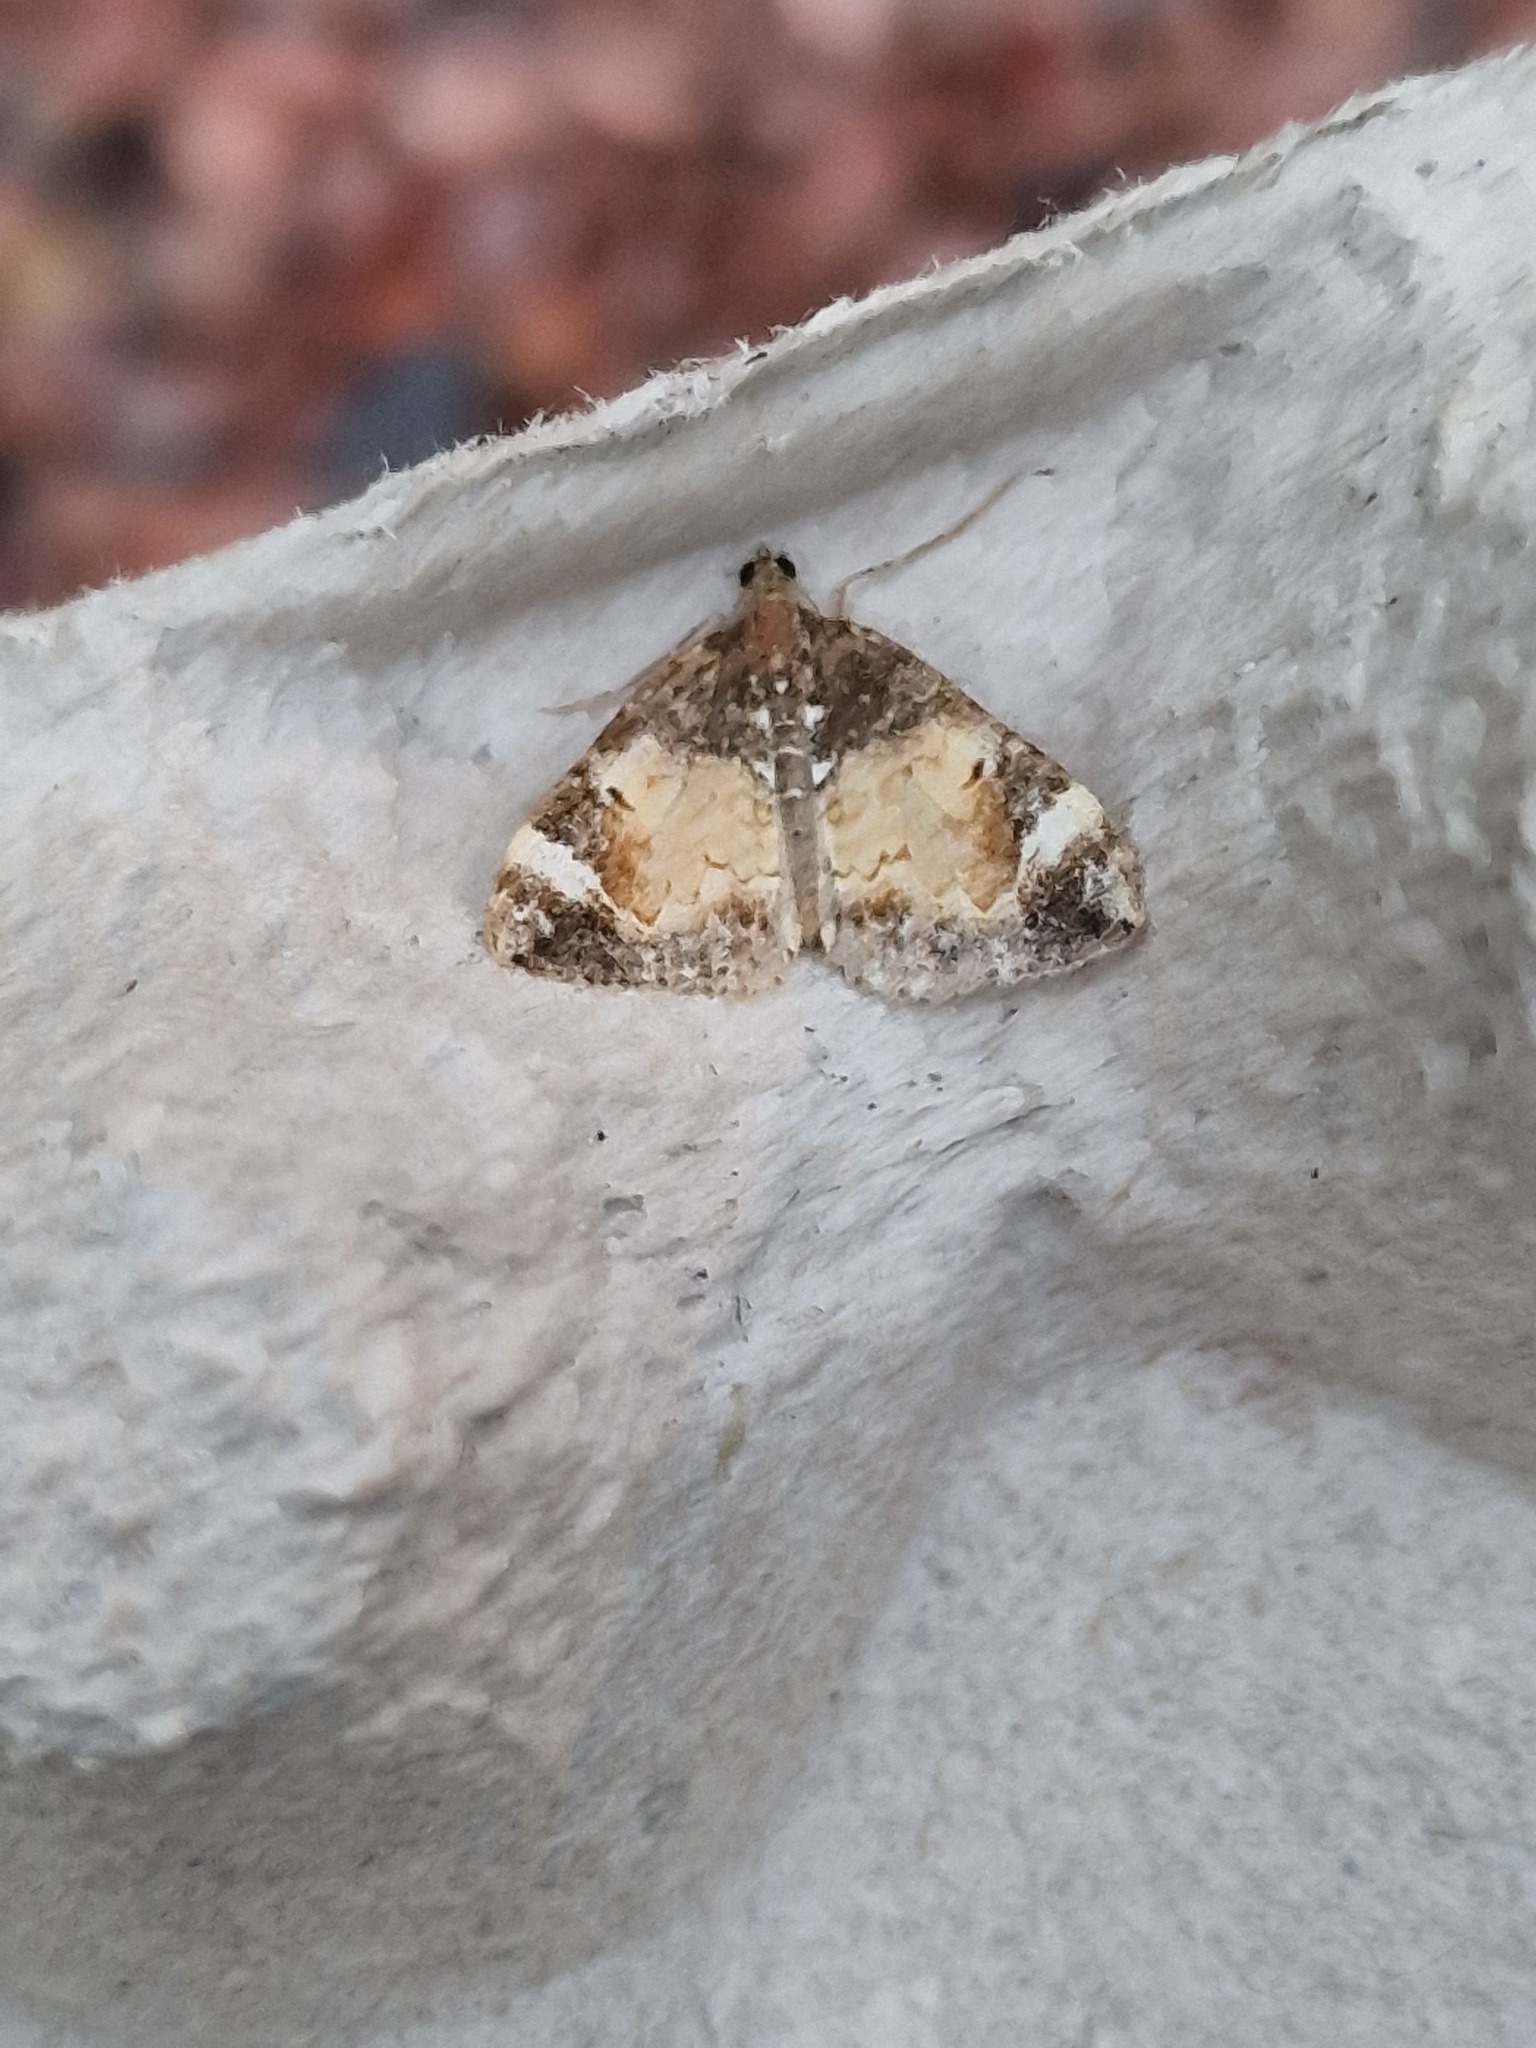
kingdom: Animalia
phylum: Arthropoda
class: Insecta
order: Lepidoptera
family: Geometridae
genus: Dysstroma
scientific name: Dysstroma truncata
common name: Common marbled carpet
